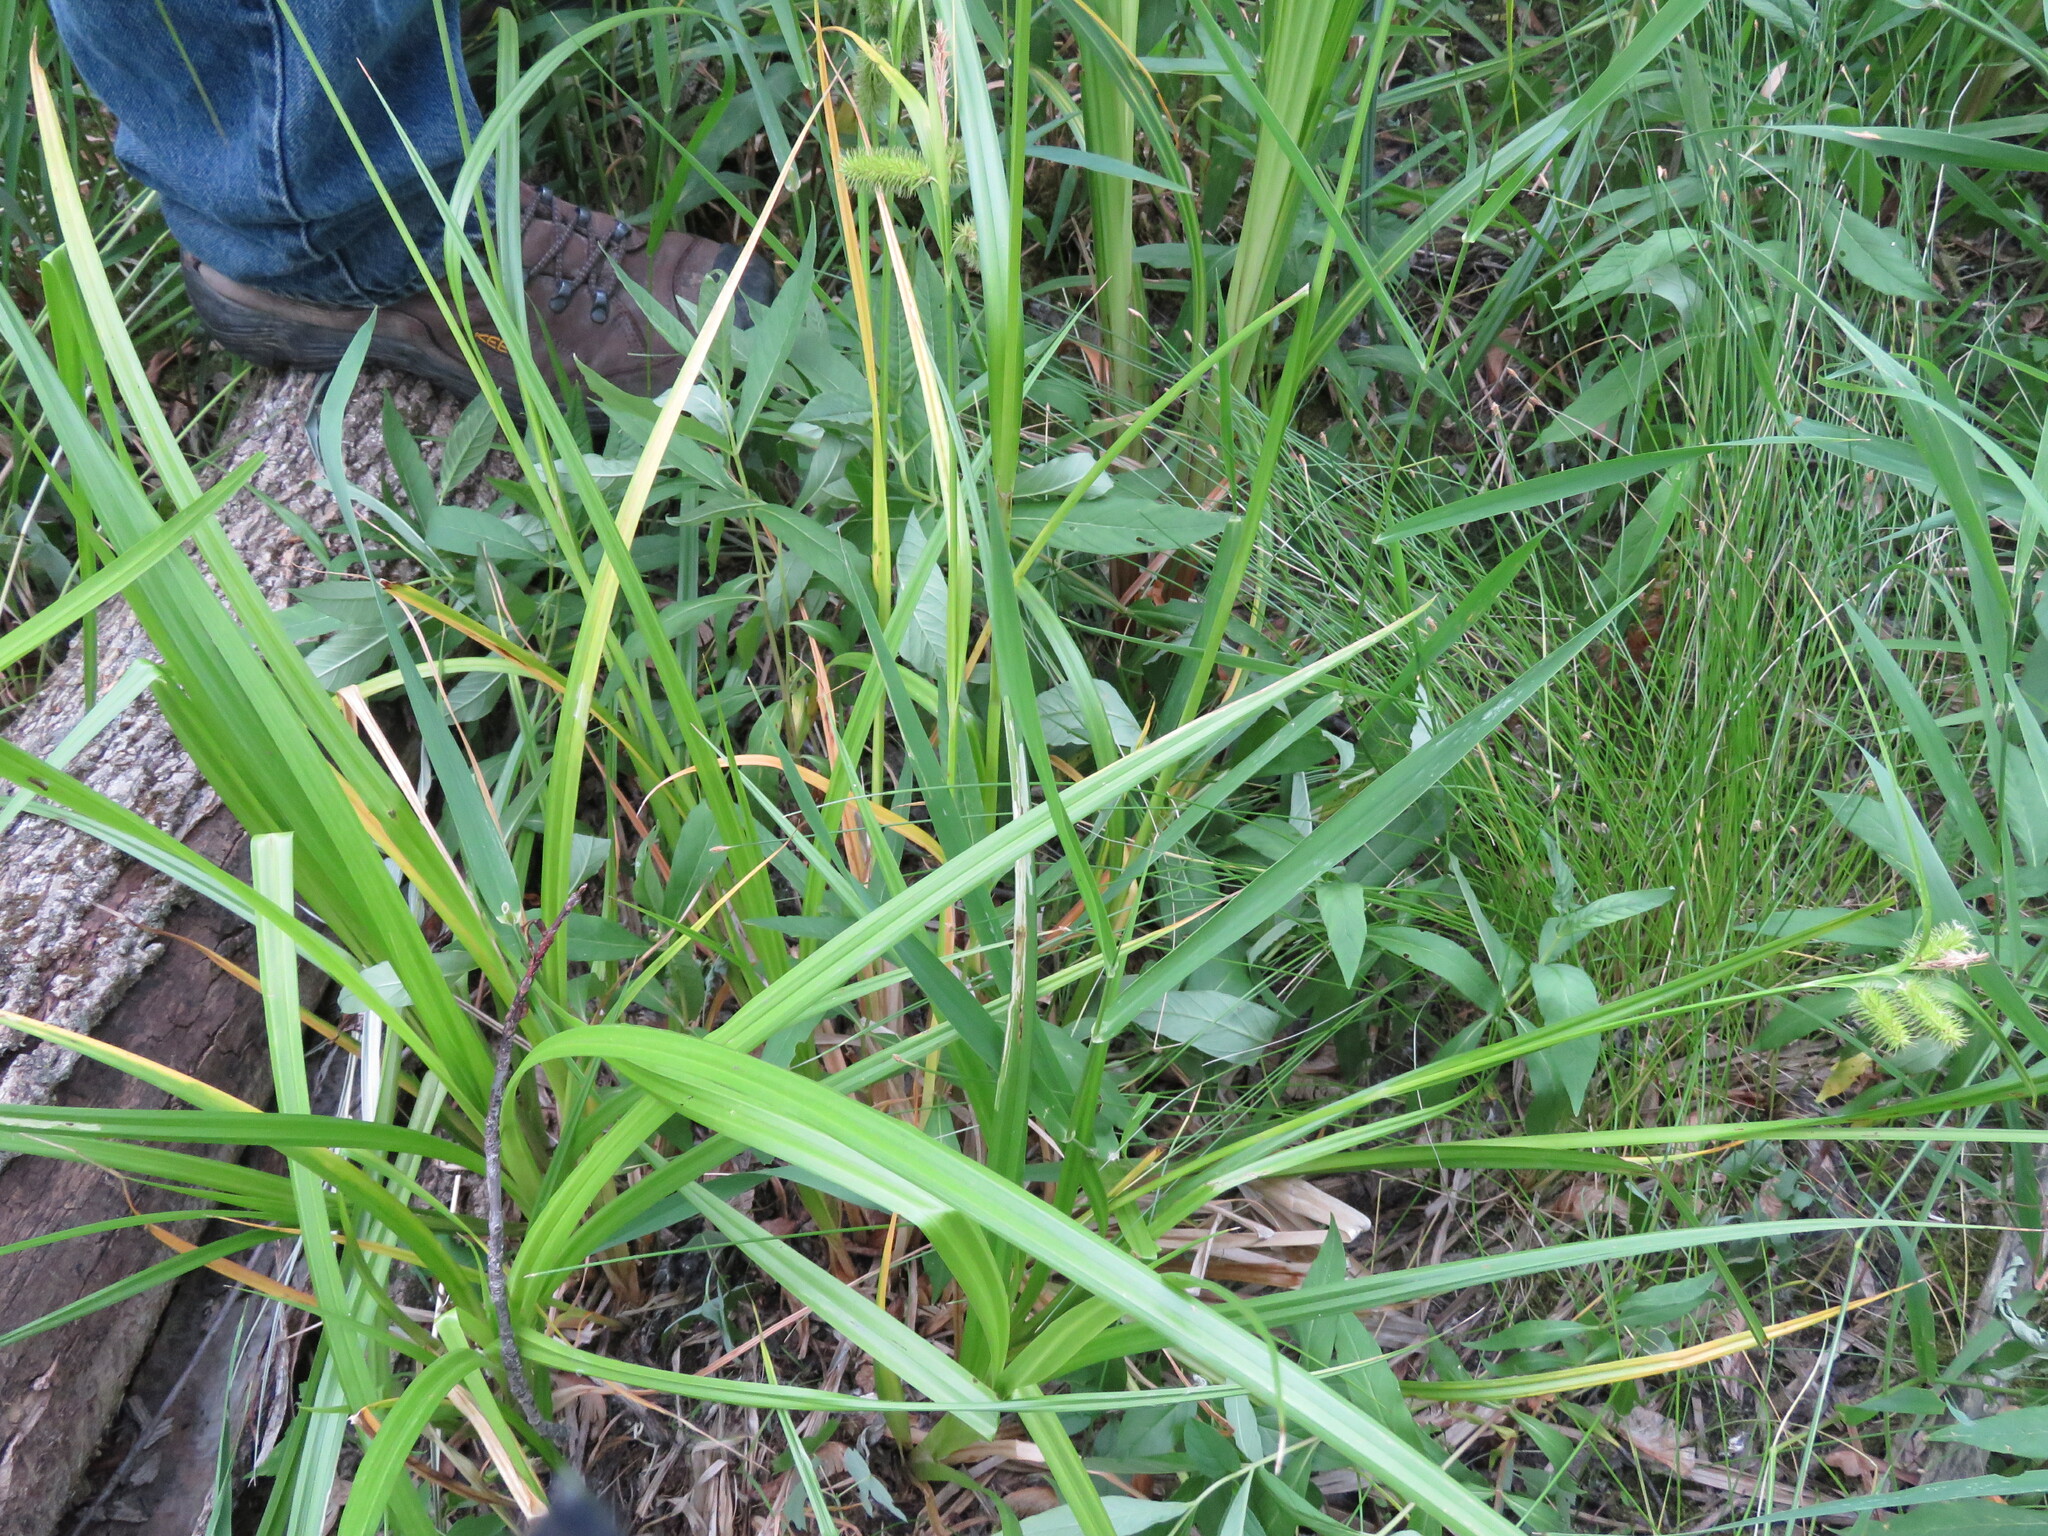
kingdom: Plantae
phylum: Tracheophyta
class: Liliopsida
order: Poales
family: Cyperaceae
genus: Carex
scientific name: Carex comosa
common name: Bristly sedge
